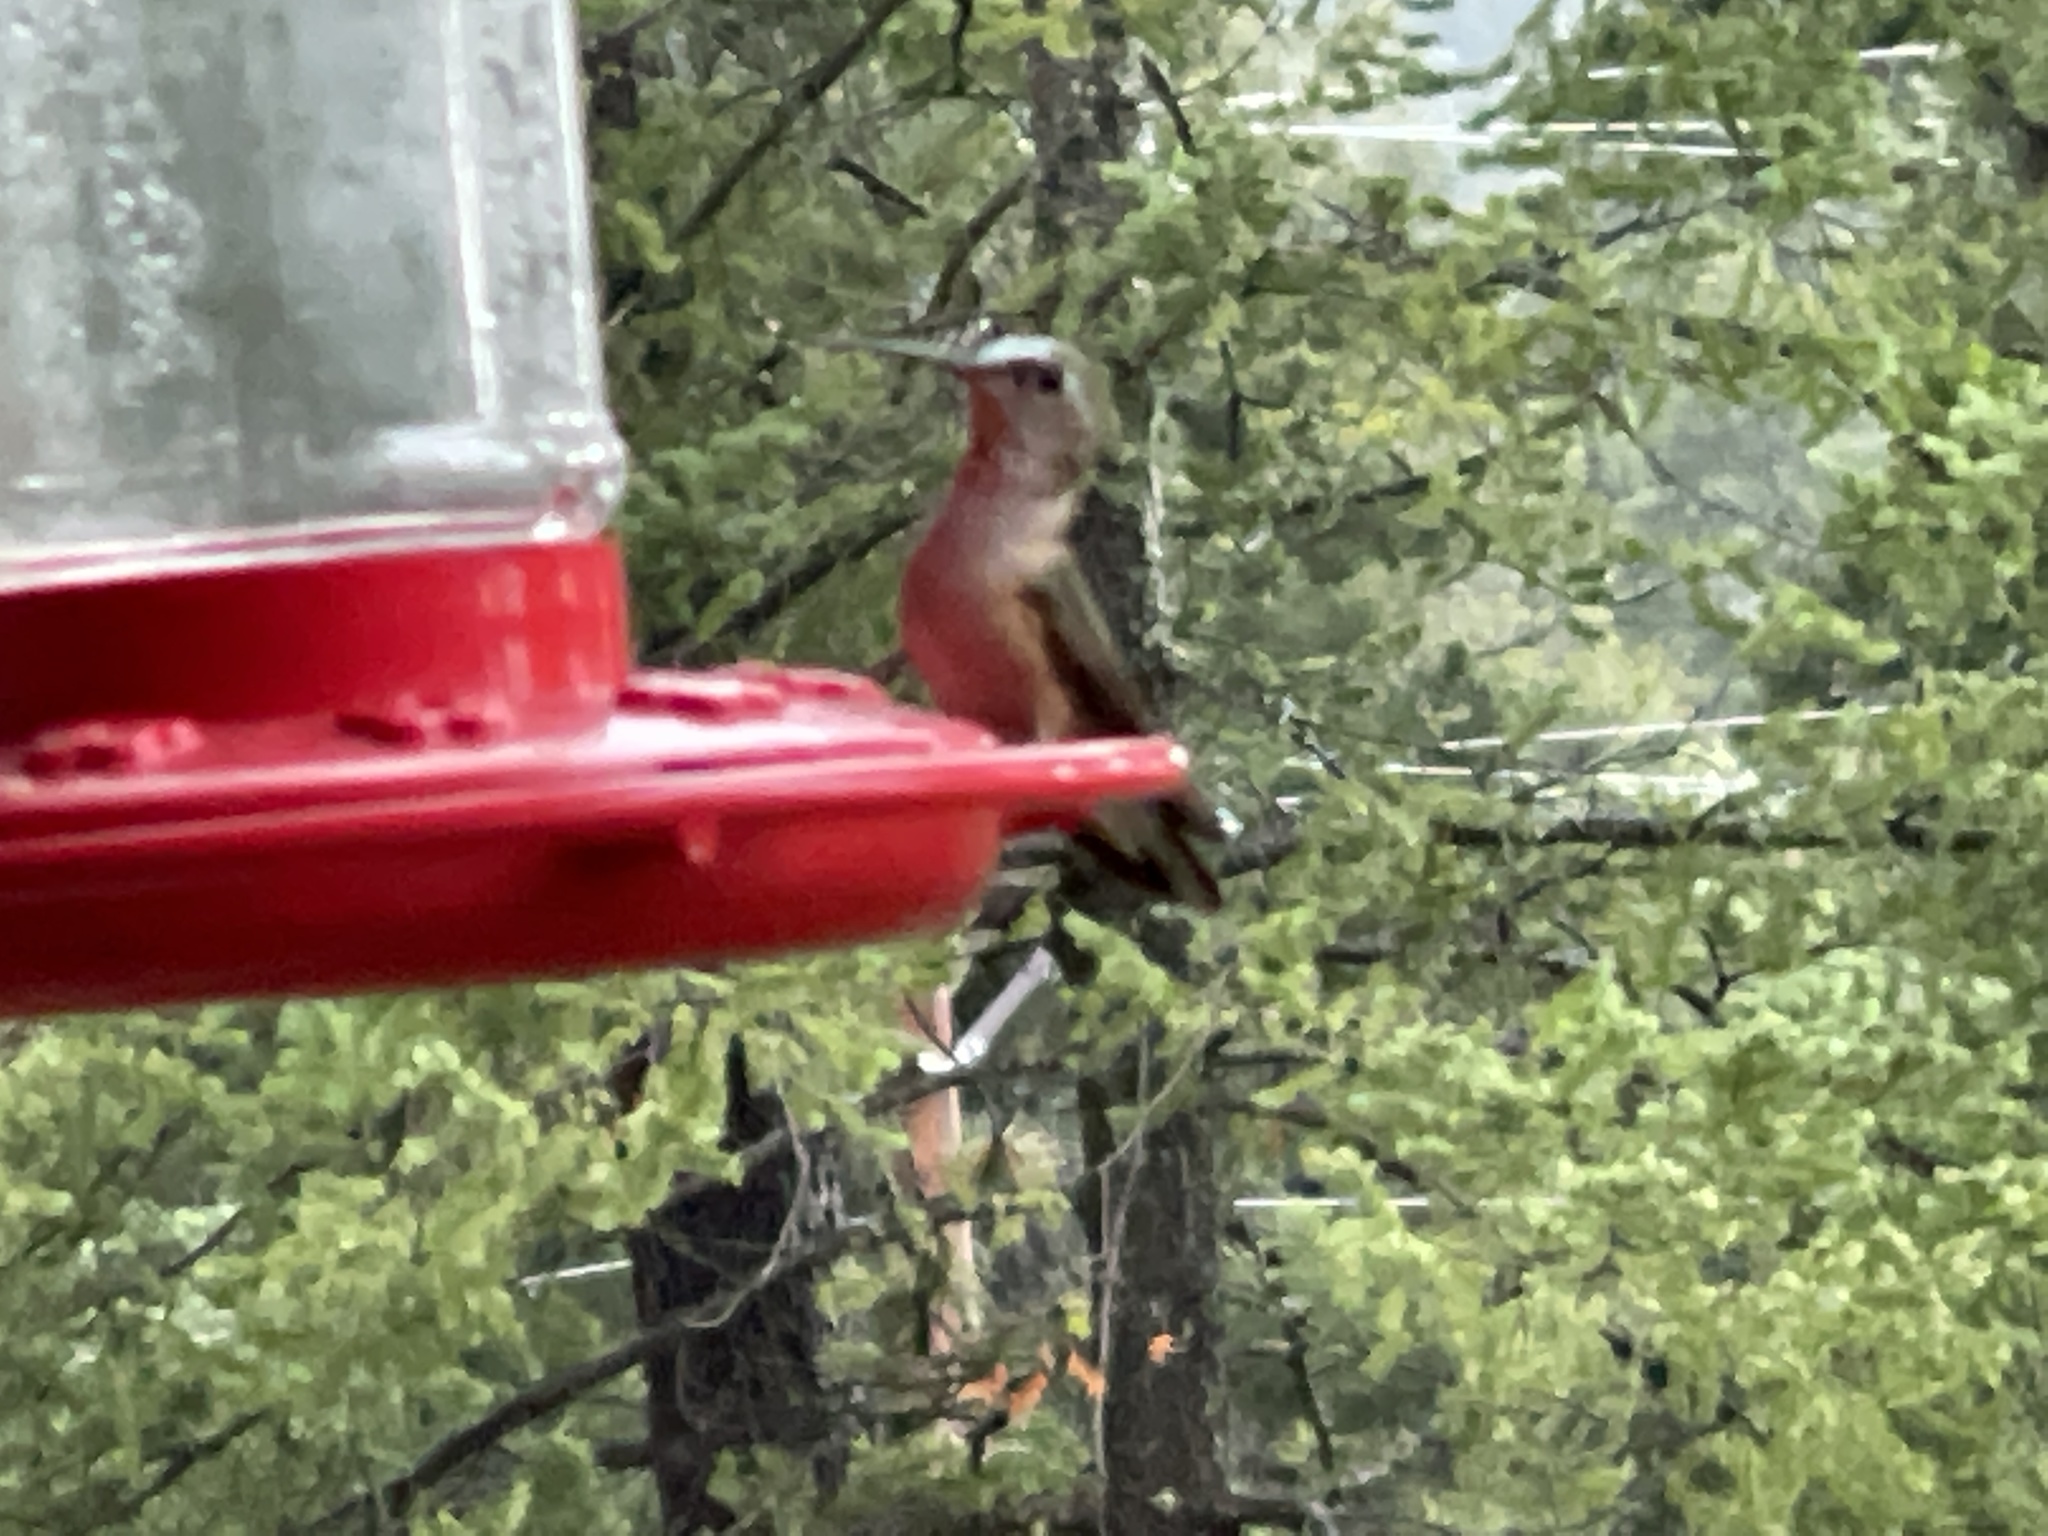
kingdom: Animalia
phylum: Chordata
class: Aves
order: Apodiformes
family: Trochilidae
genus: Selasphorus
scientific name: Selasphorus platycercus
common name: Broad-tailed hummingbird
